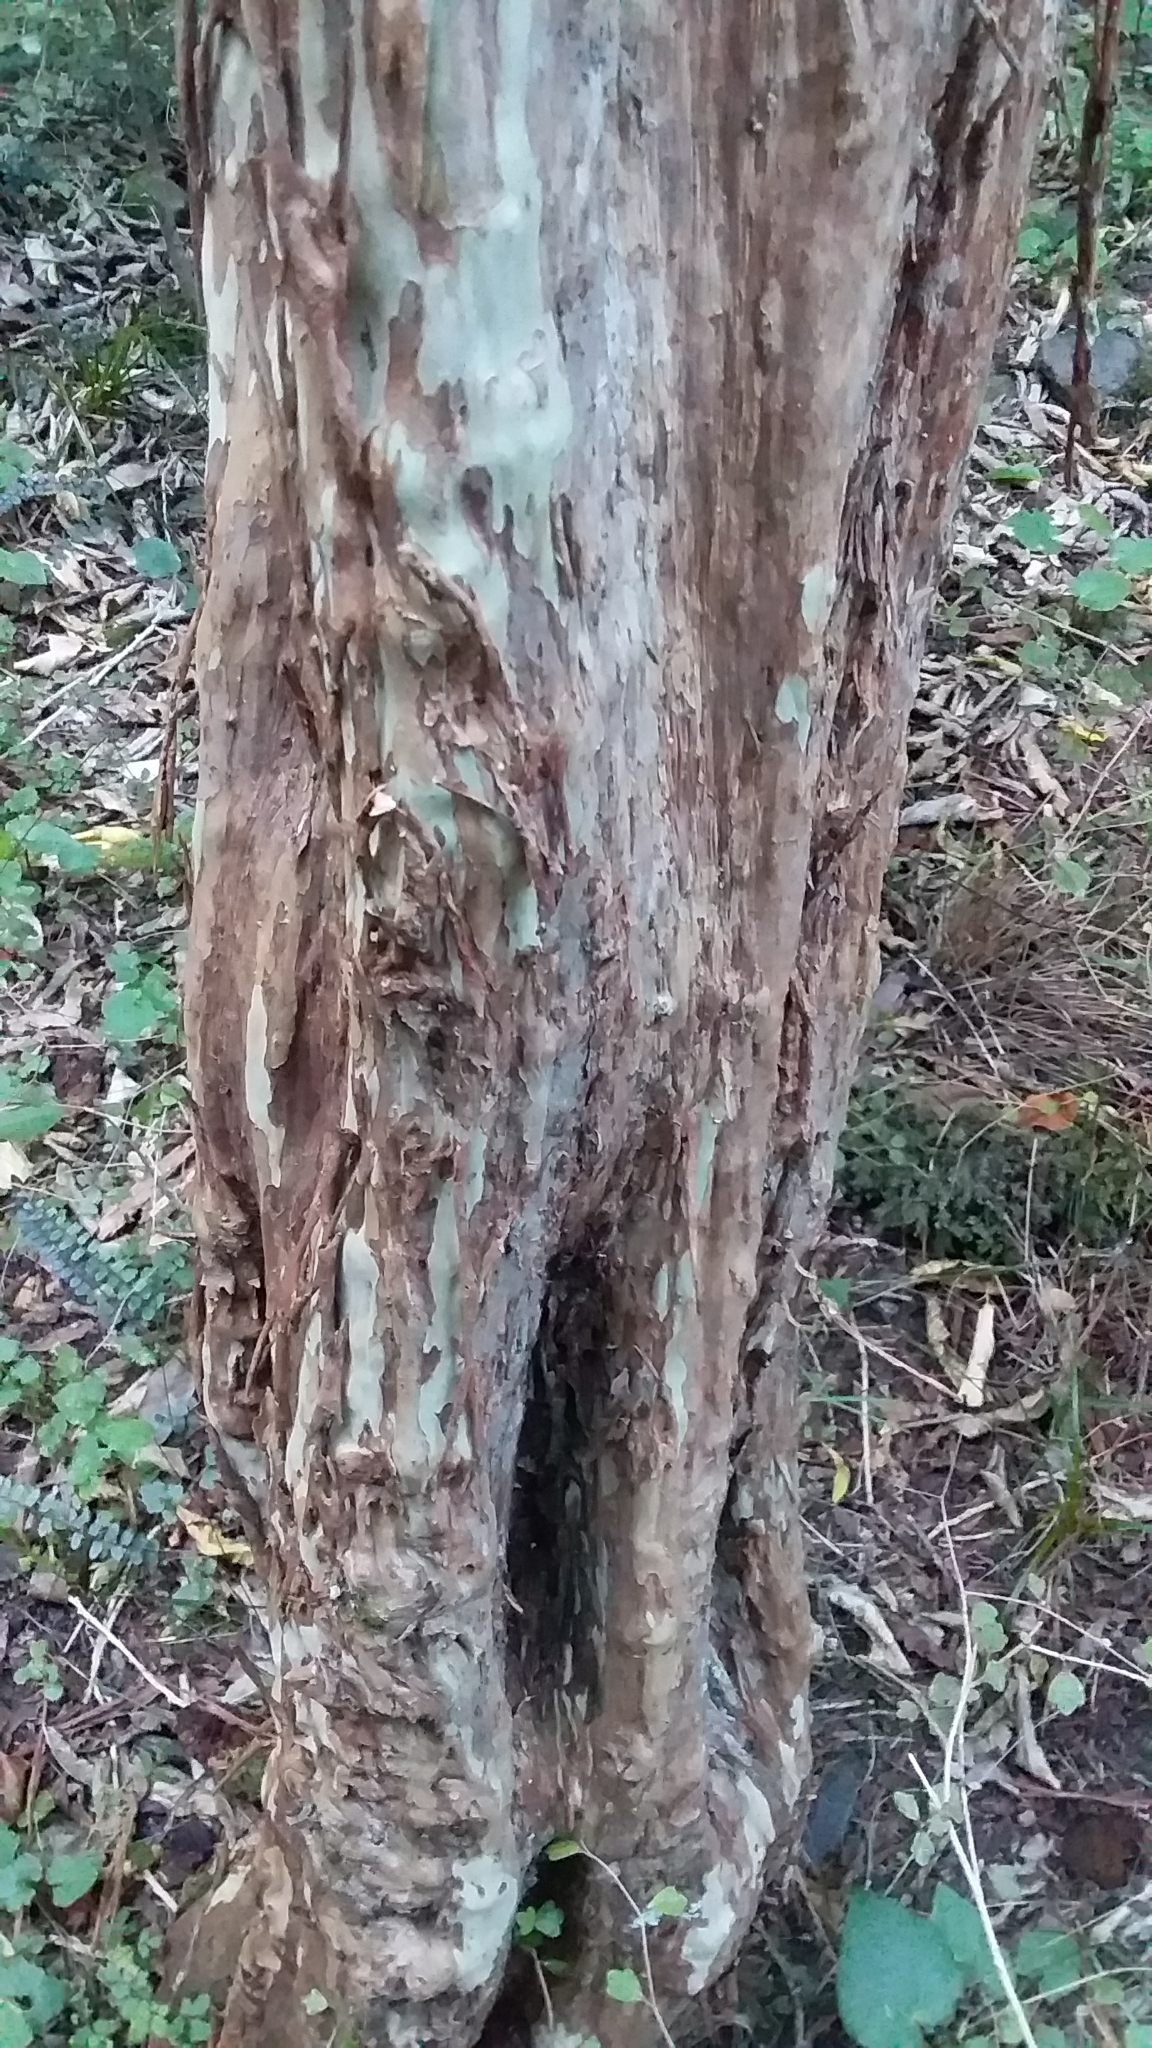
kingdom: Plantae
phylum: Tracheophyta
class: Magnoliopsida
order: Myrtales
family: Myrtaceae
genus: Lophomyrtus
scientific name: Lophomyrtus obcordata
